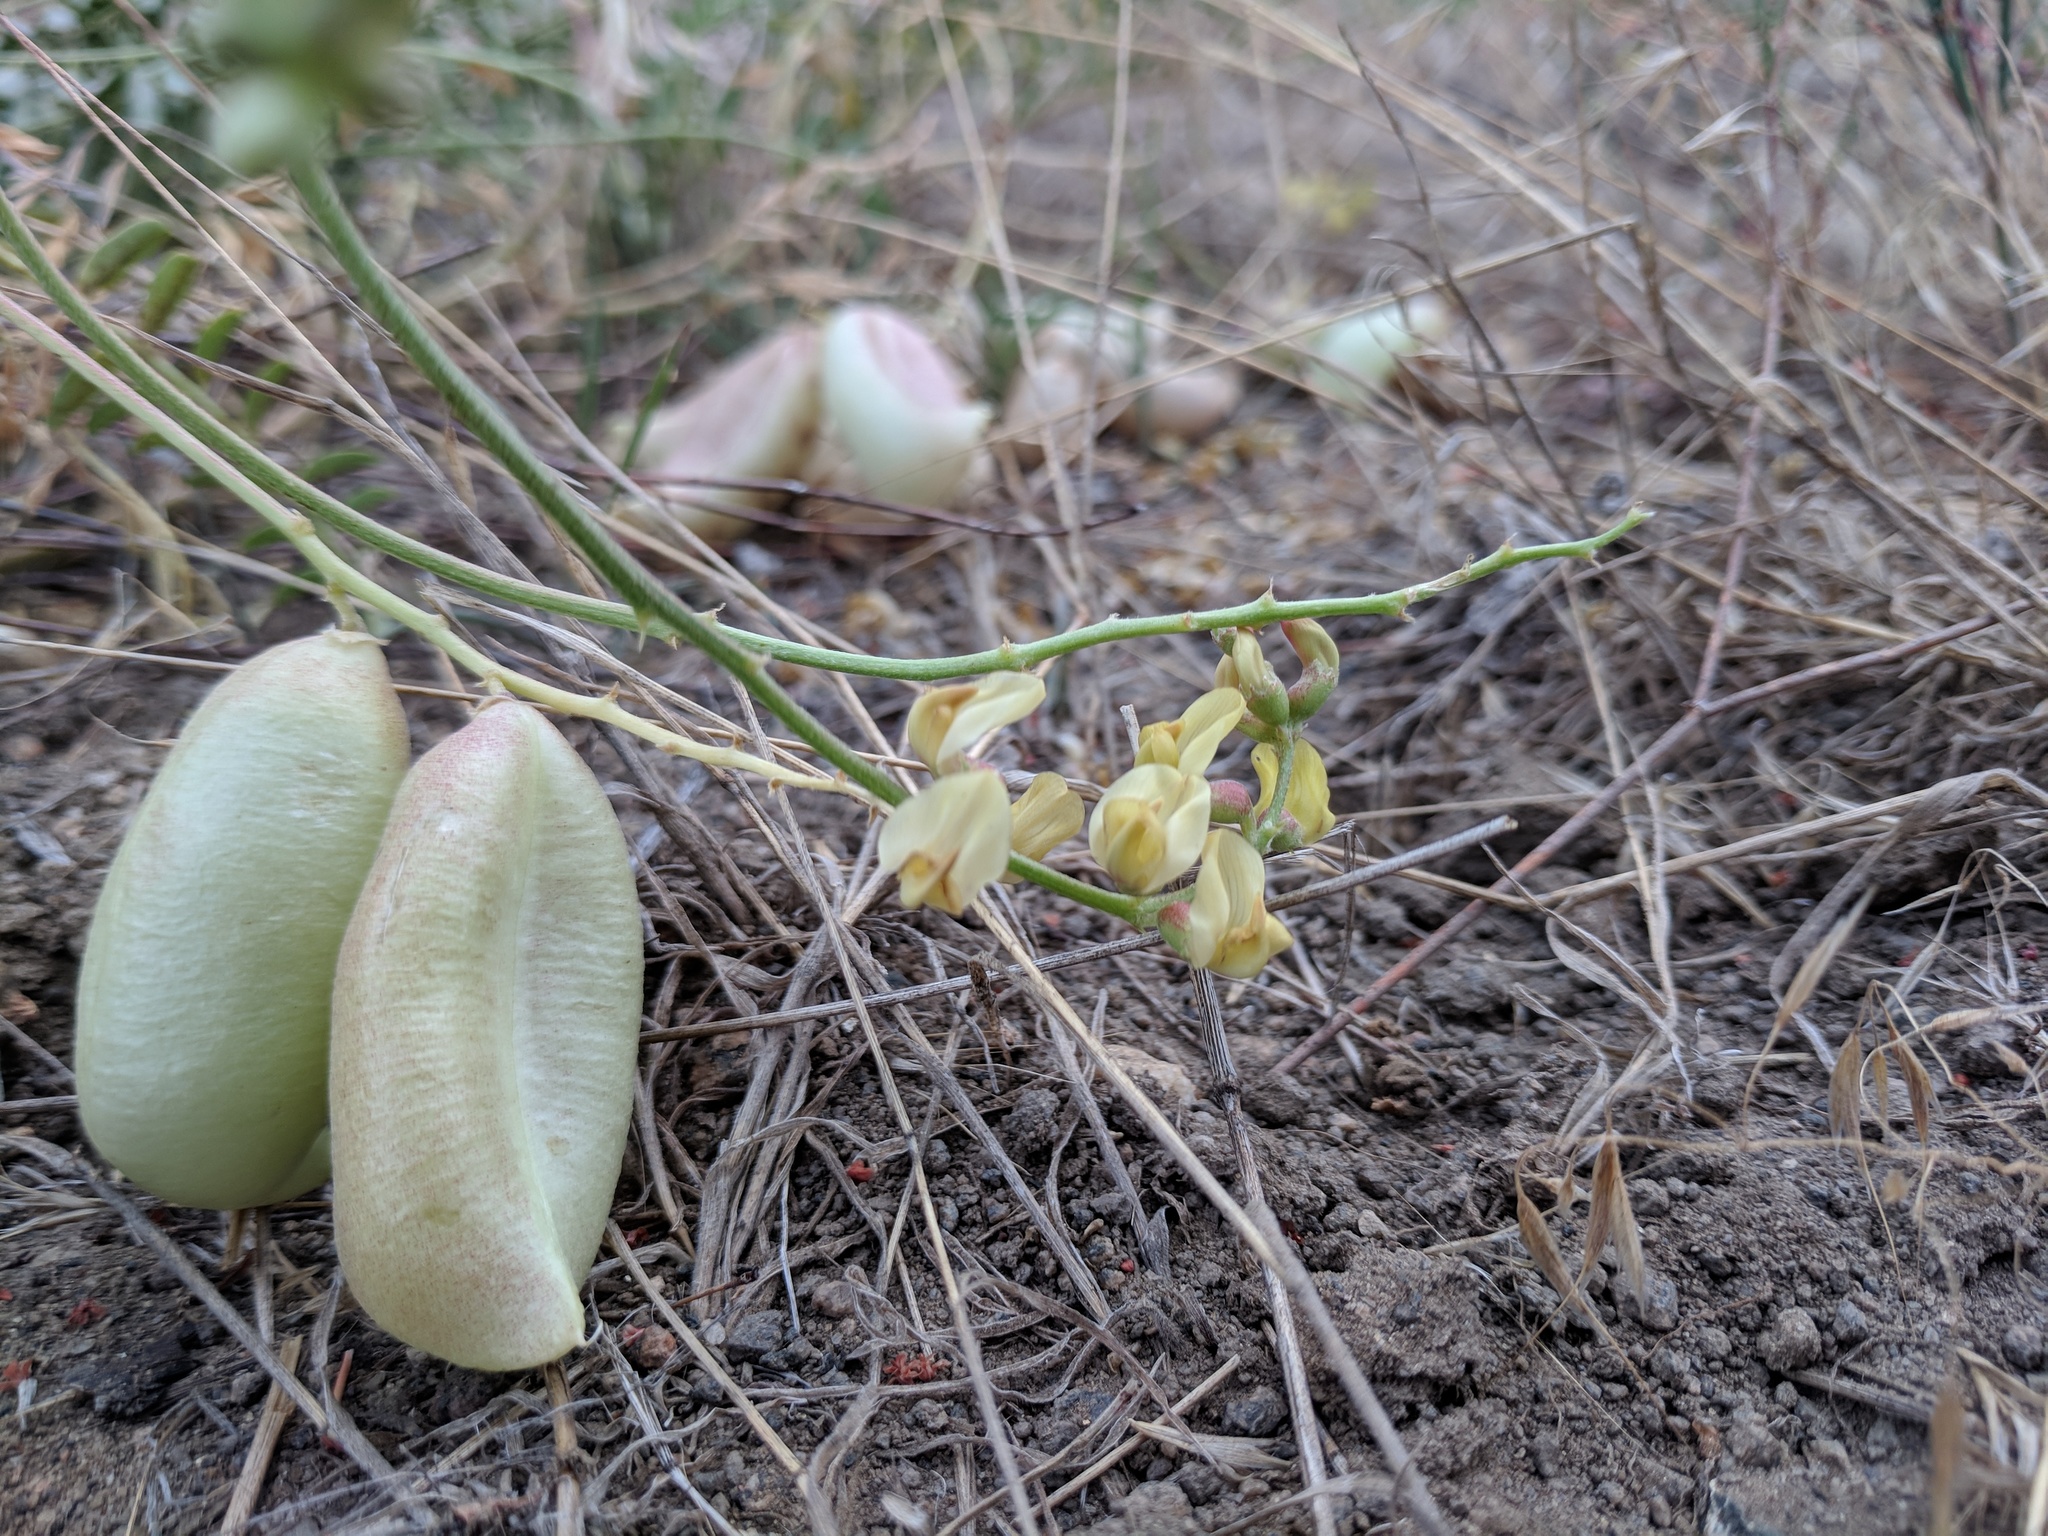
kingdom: Plantae
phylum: Tracheophyta
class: Magnoliopsida
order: Fabales
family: Fabaceae
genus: Astragalus
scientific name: Astragalus douglasii
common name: Jacumba milkvetch
